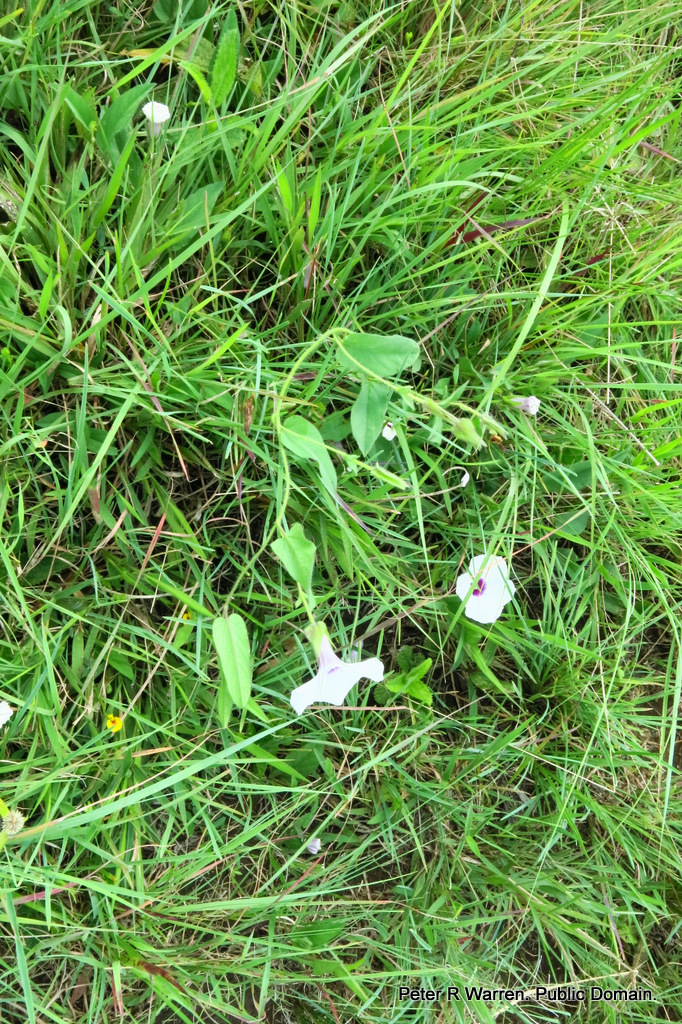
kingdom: Plantae
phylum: Tracheophyta
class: Magnoliopsida
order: Solanales
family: Convolvulaceae
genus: Ipomoea
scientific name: Ipomoea crassipes
